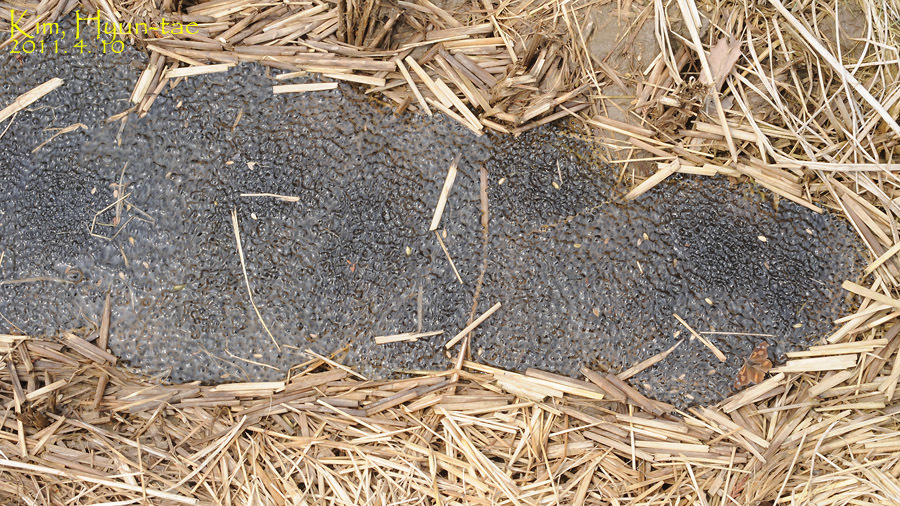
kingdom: Animalia
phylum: Chordata
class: Amphibia
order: Anura
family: Ranidae
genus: Rana
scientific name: Rana uenoi
